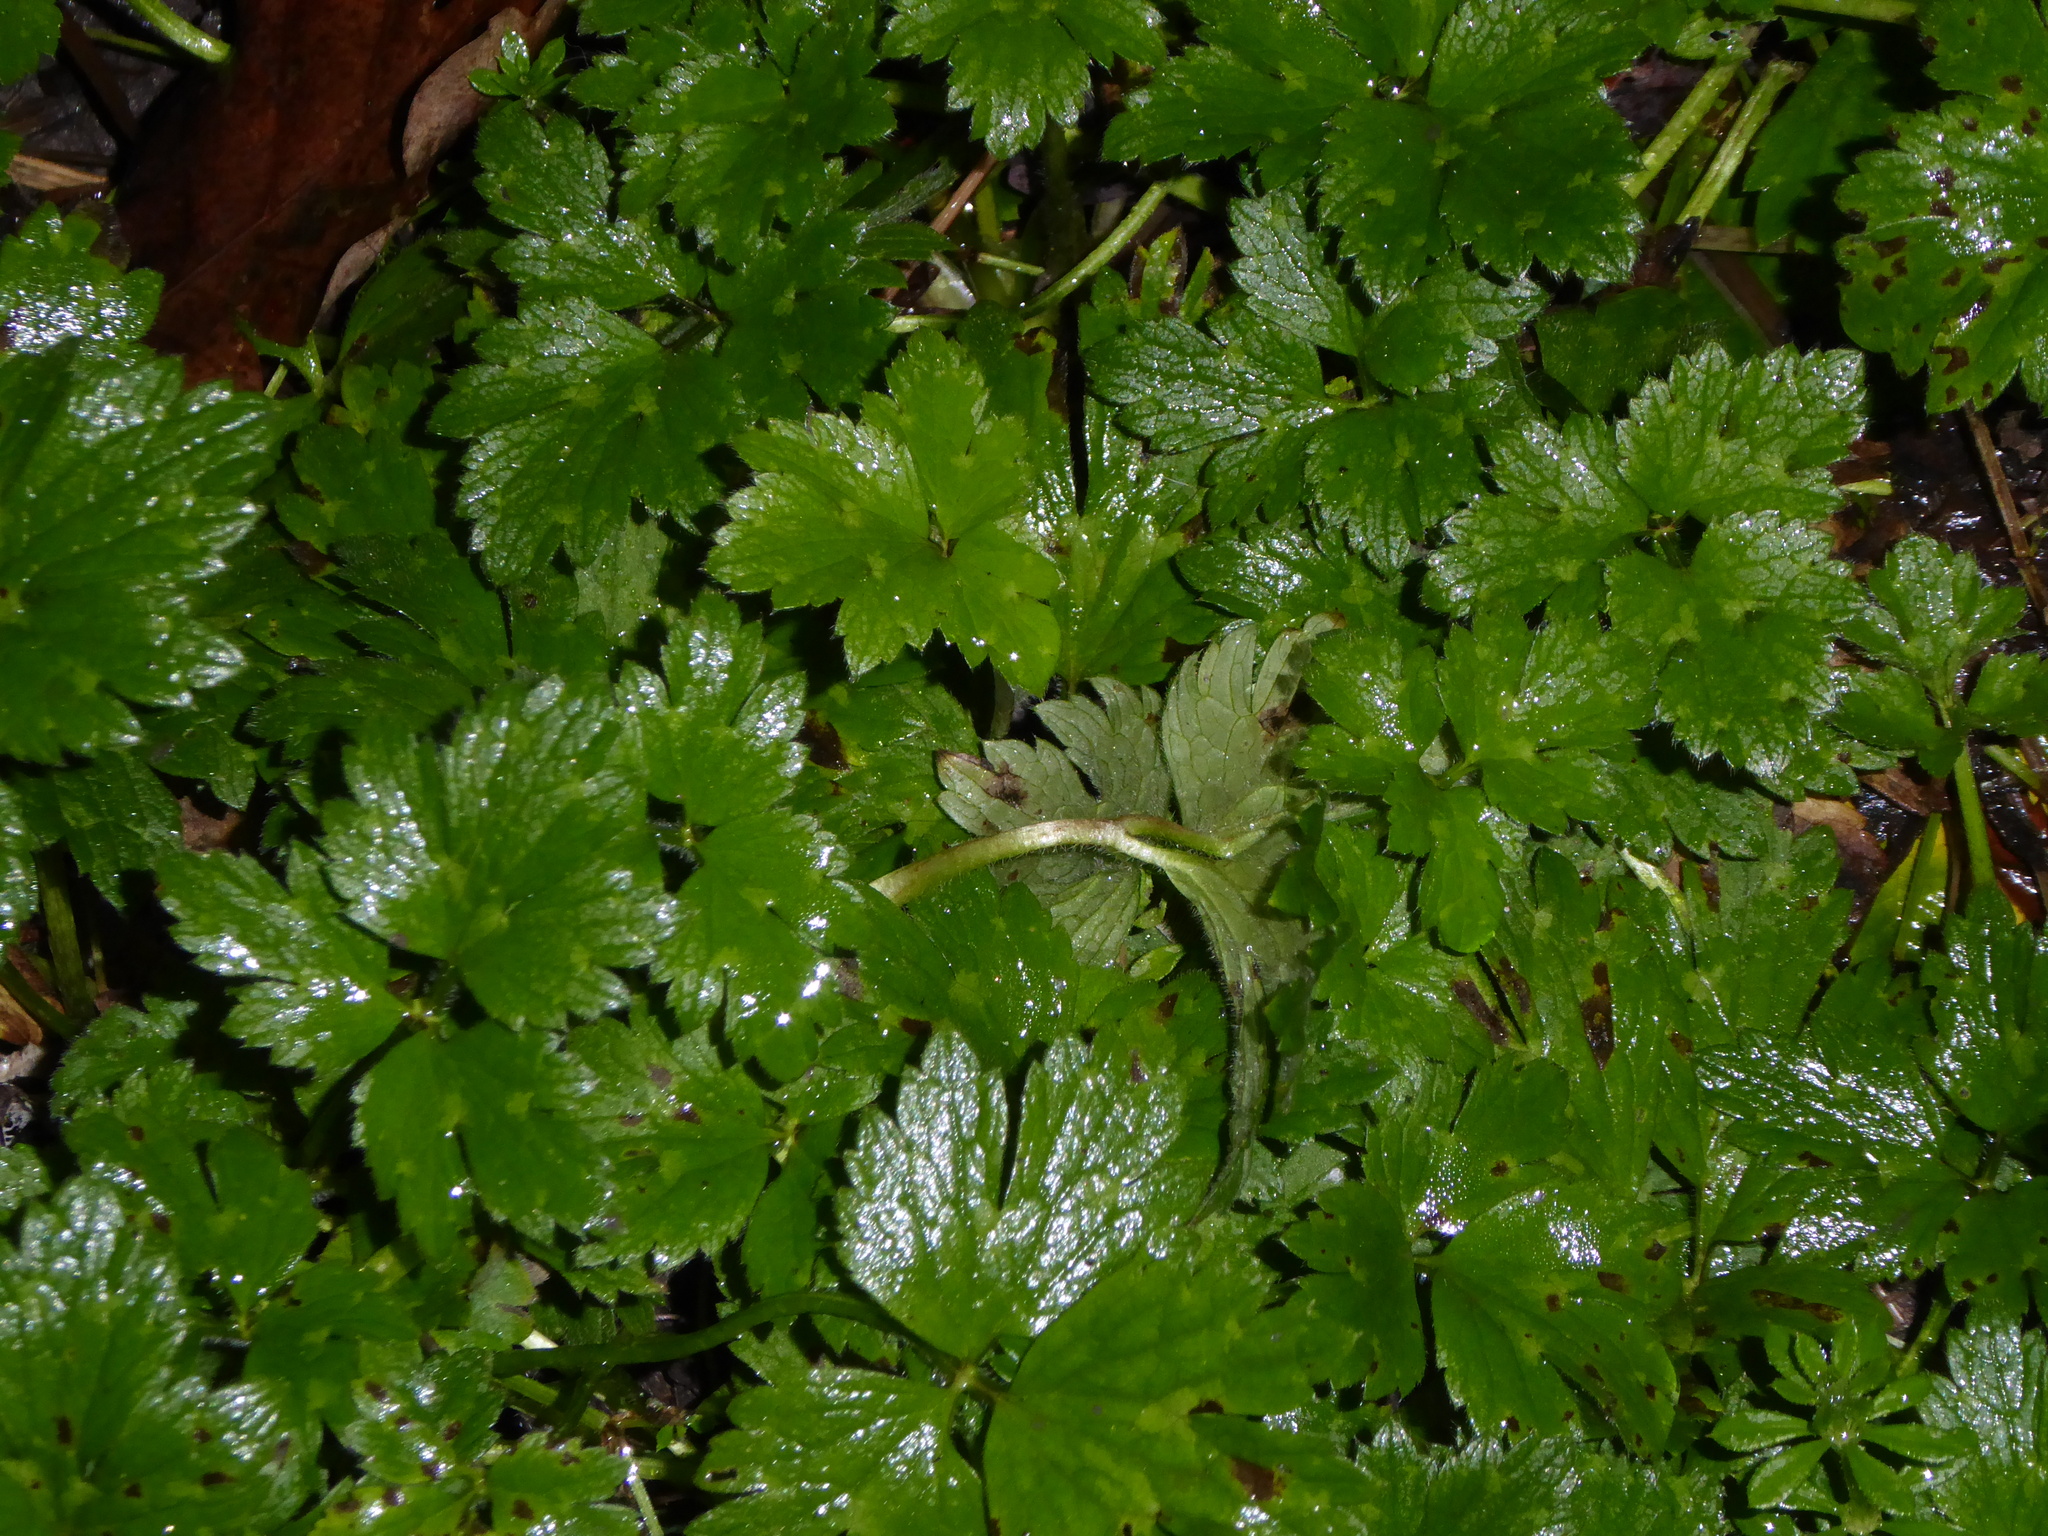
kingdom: Plantae
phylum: Tracheophyta
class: Magnoliopsida
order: Ranunculales
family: Ranunculaceae
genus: Ranunculus
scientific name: Ranunculus repens
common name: Creeping buttercup
